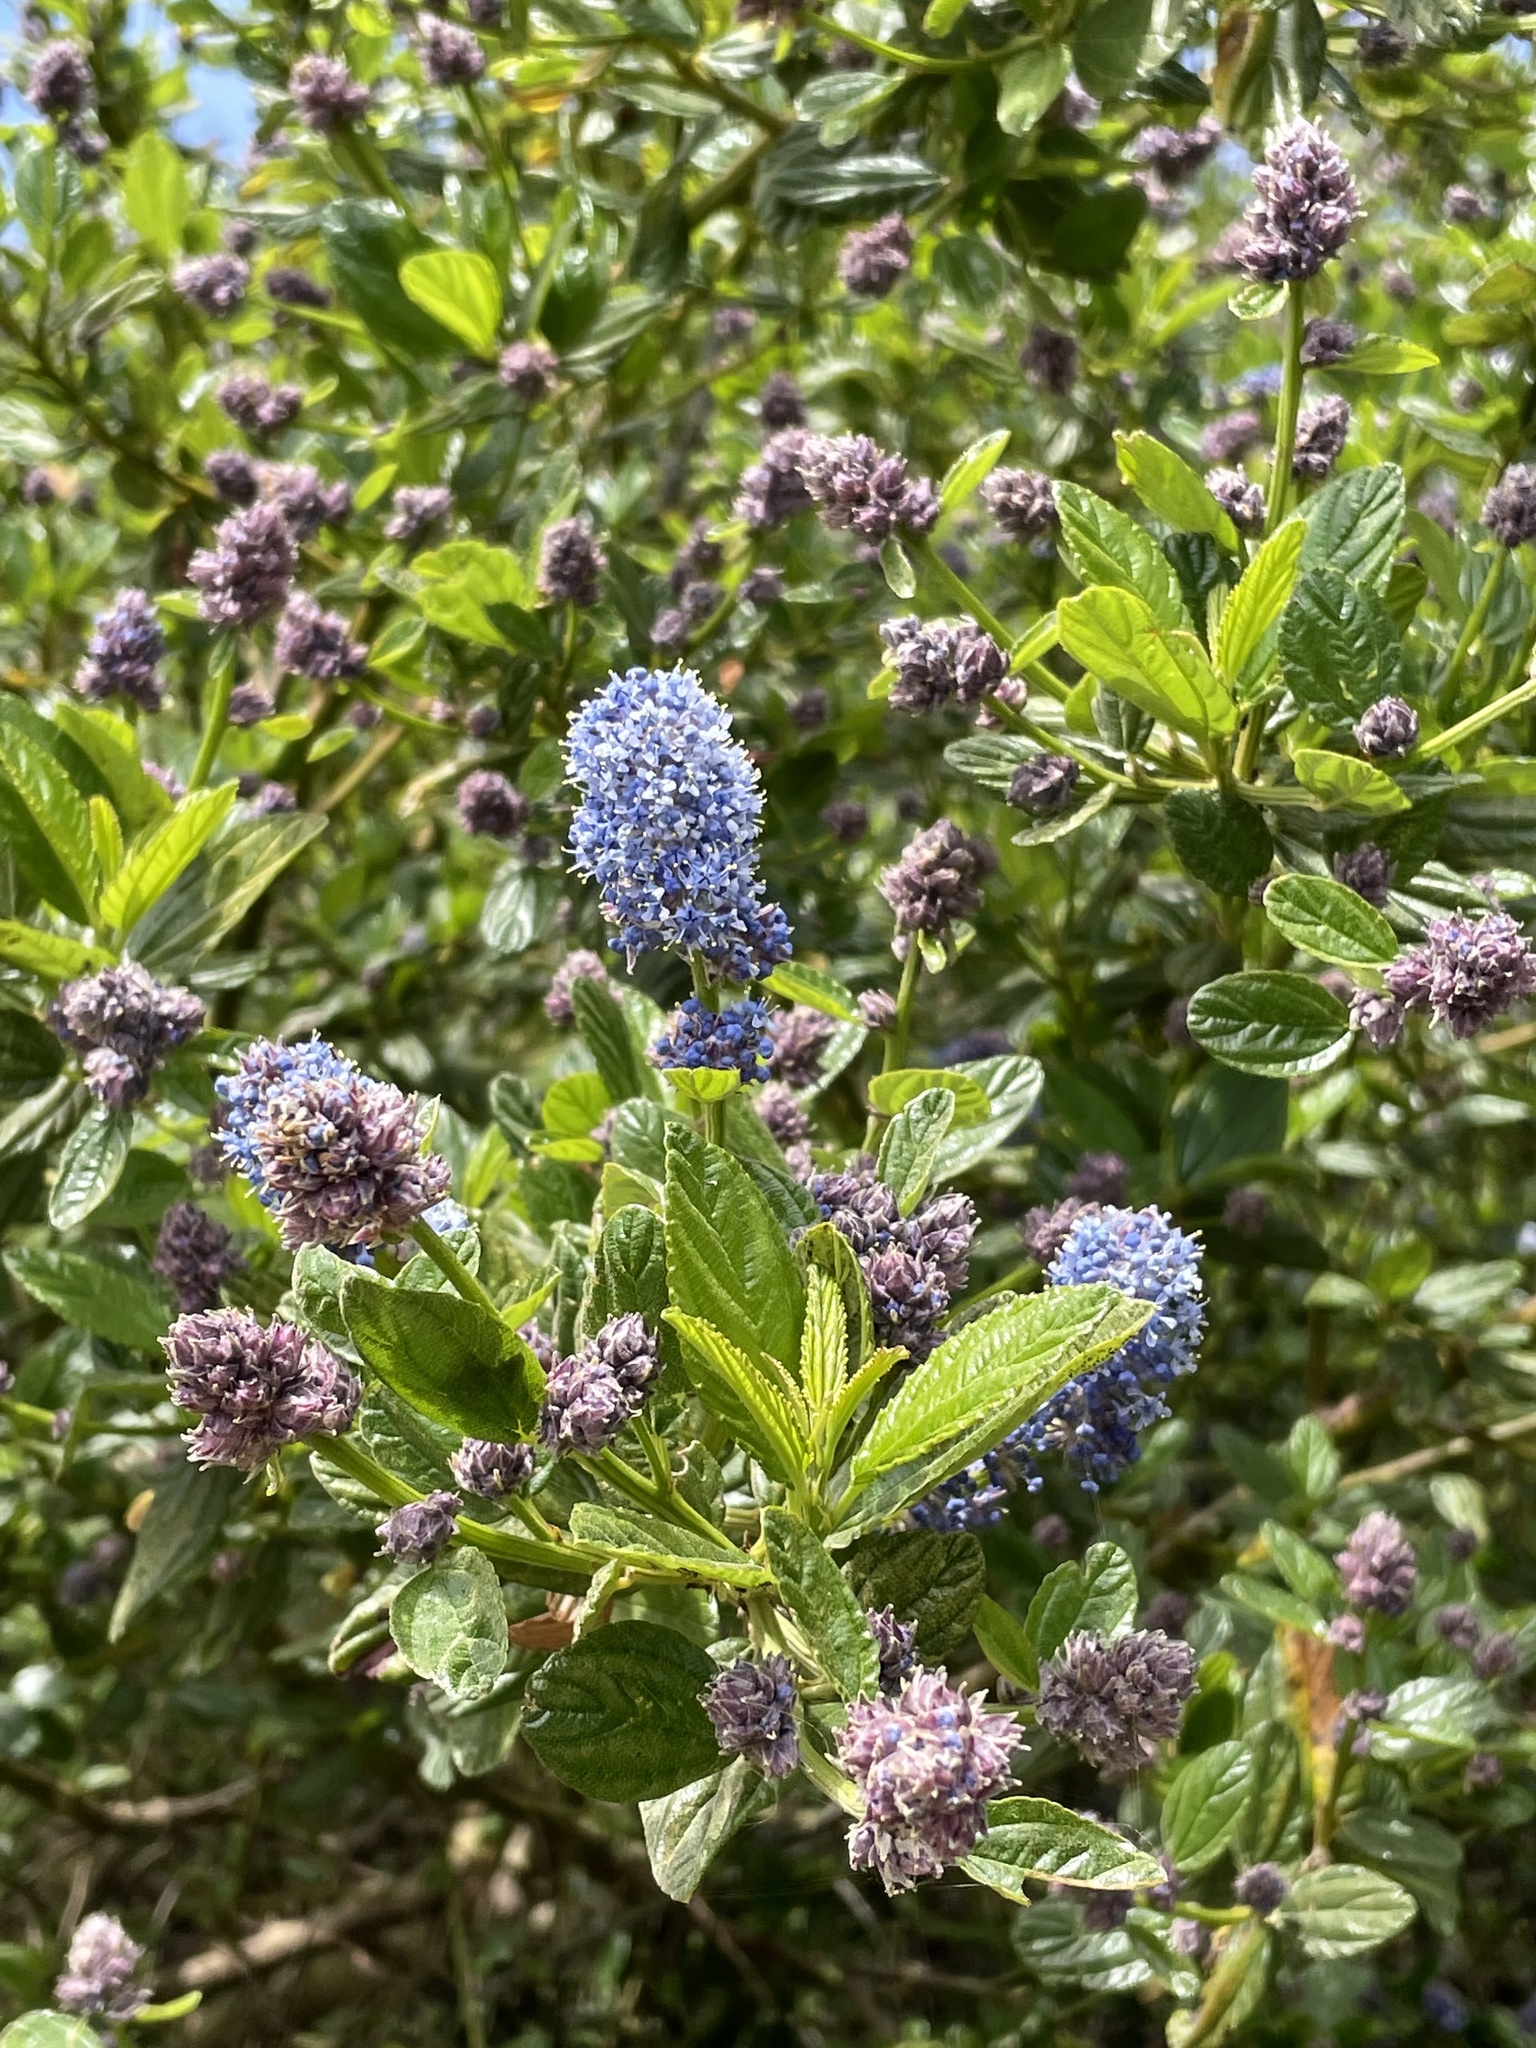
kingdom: Plantae
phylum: Tracheophyta
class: Magnoliopsida
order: Rosales
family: Rhamnaceae
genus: Ceanothus
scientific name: Ceanothus thyrsiflorus
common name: California-lilac
